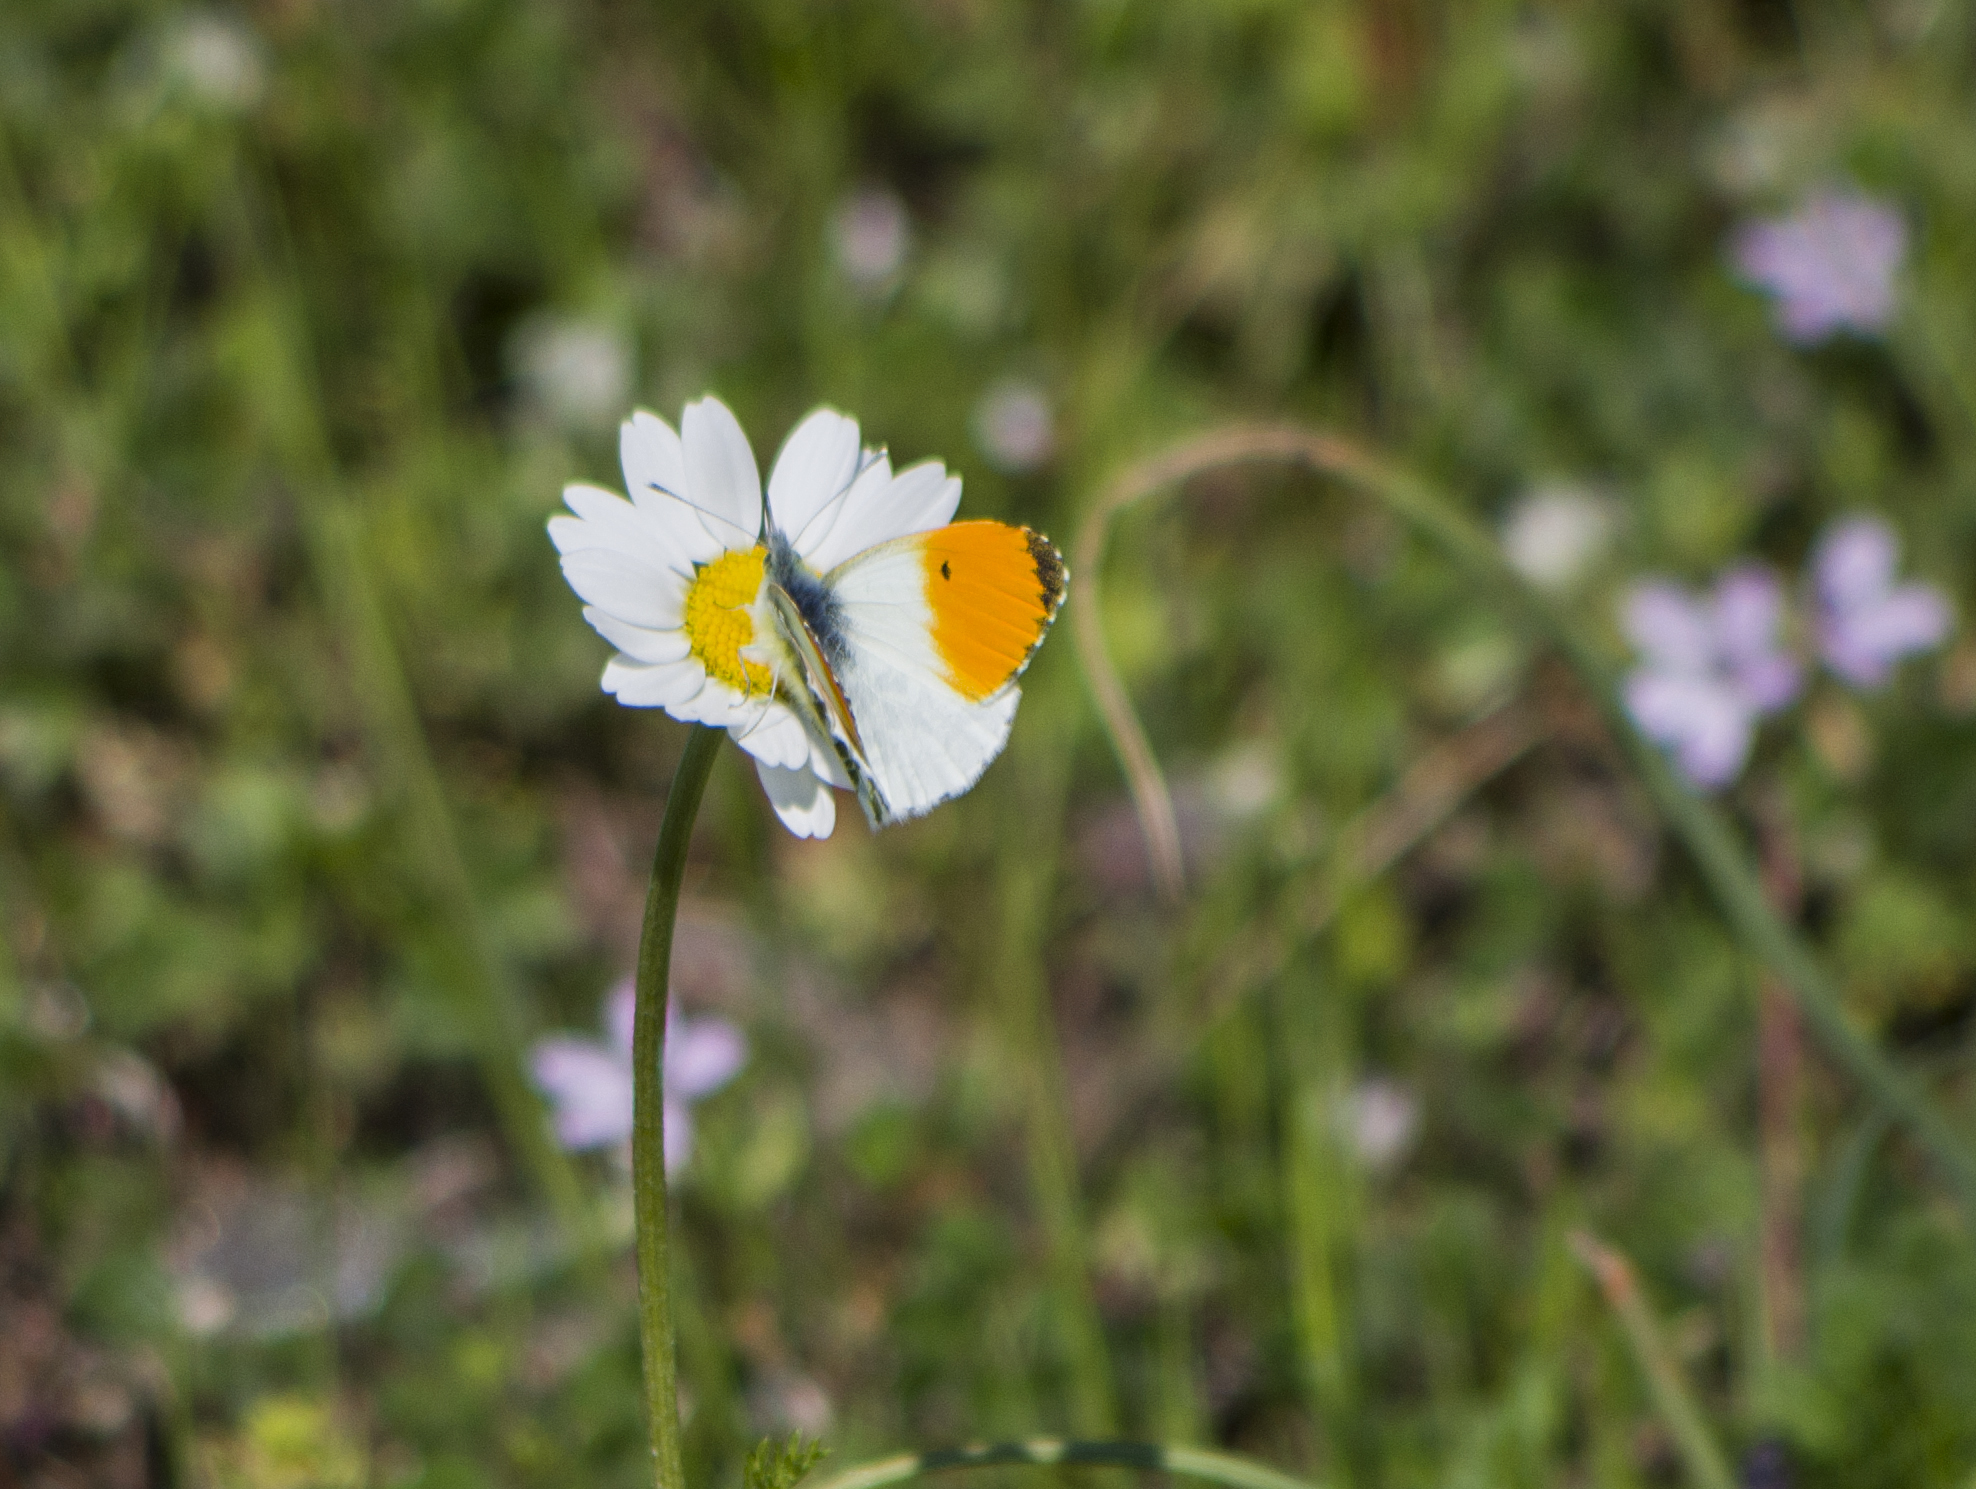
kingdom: Animalia
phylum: Arthropoda
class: Insecta
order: Lepidoptera
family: Pieridae
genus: Anthocharis
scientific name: Anthocharis cardamines
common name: Orange-tip
